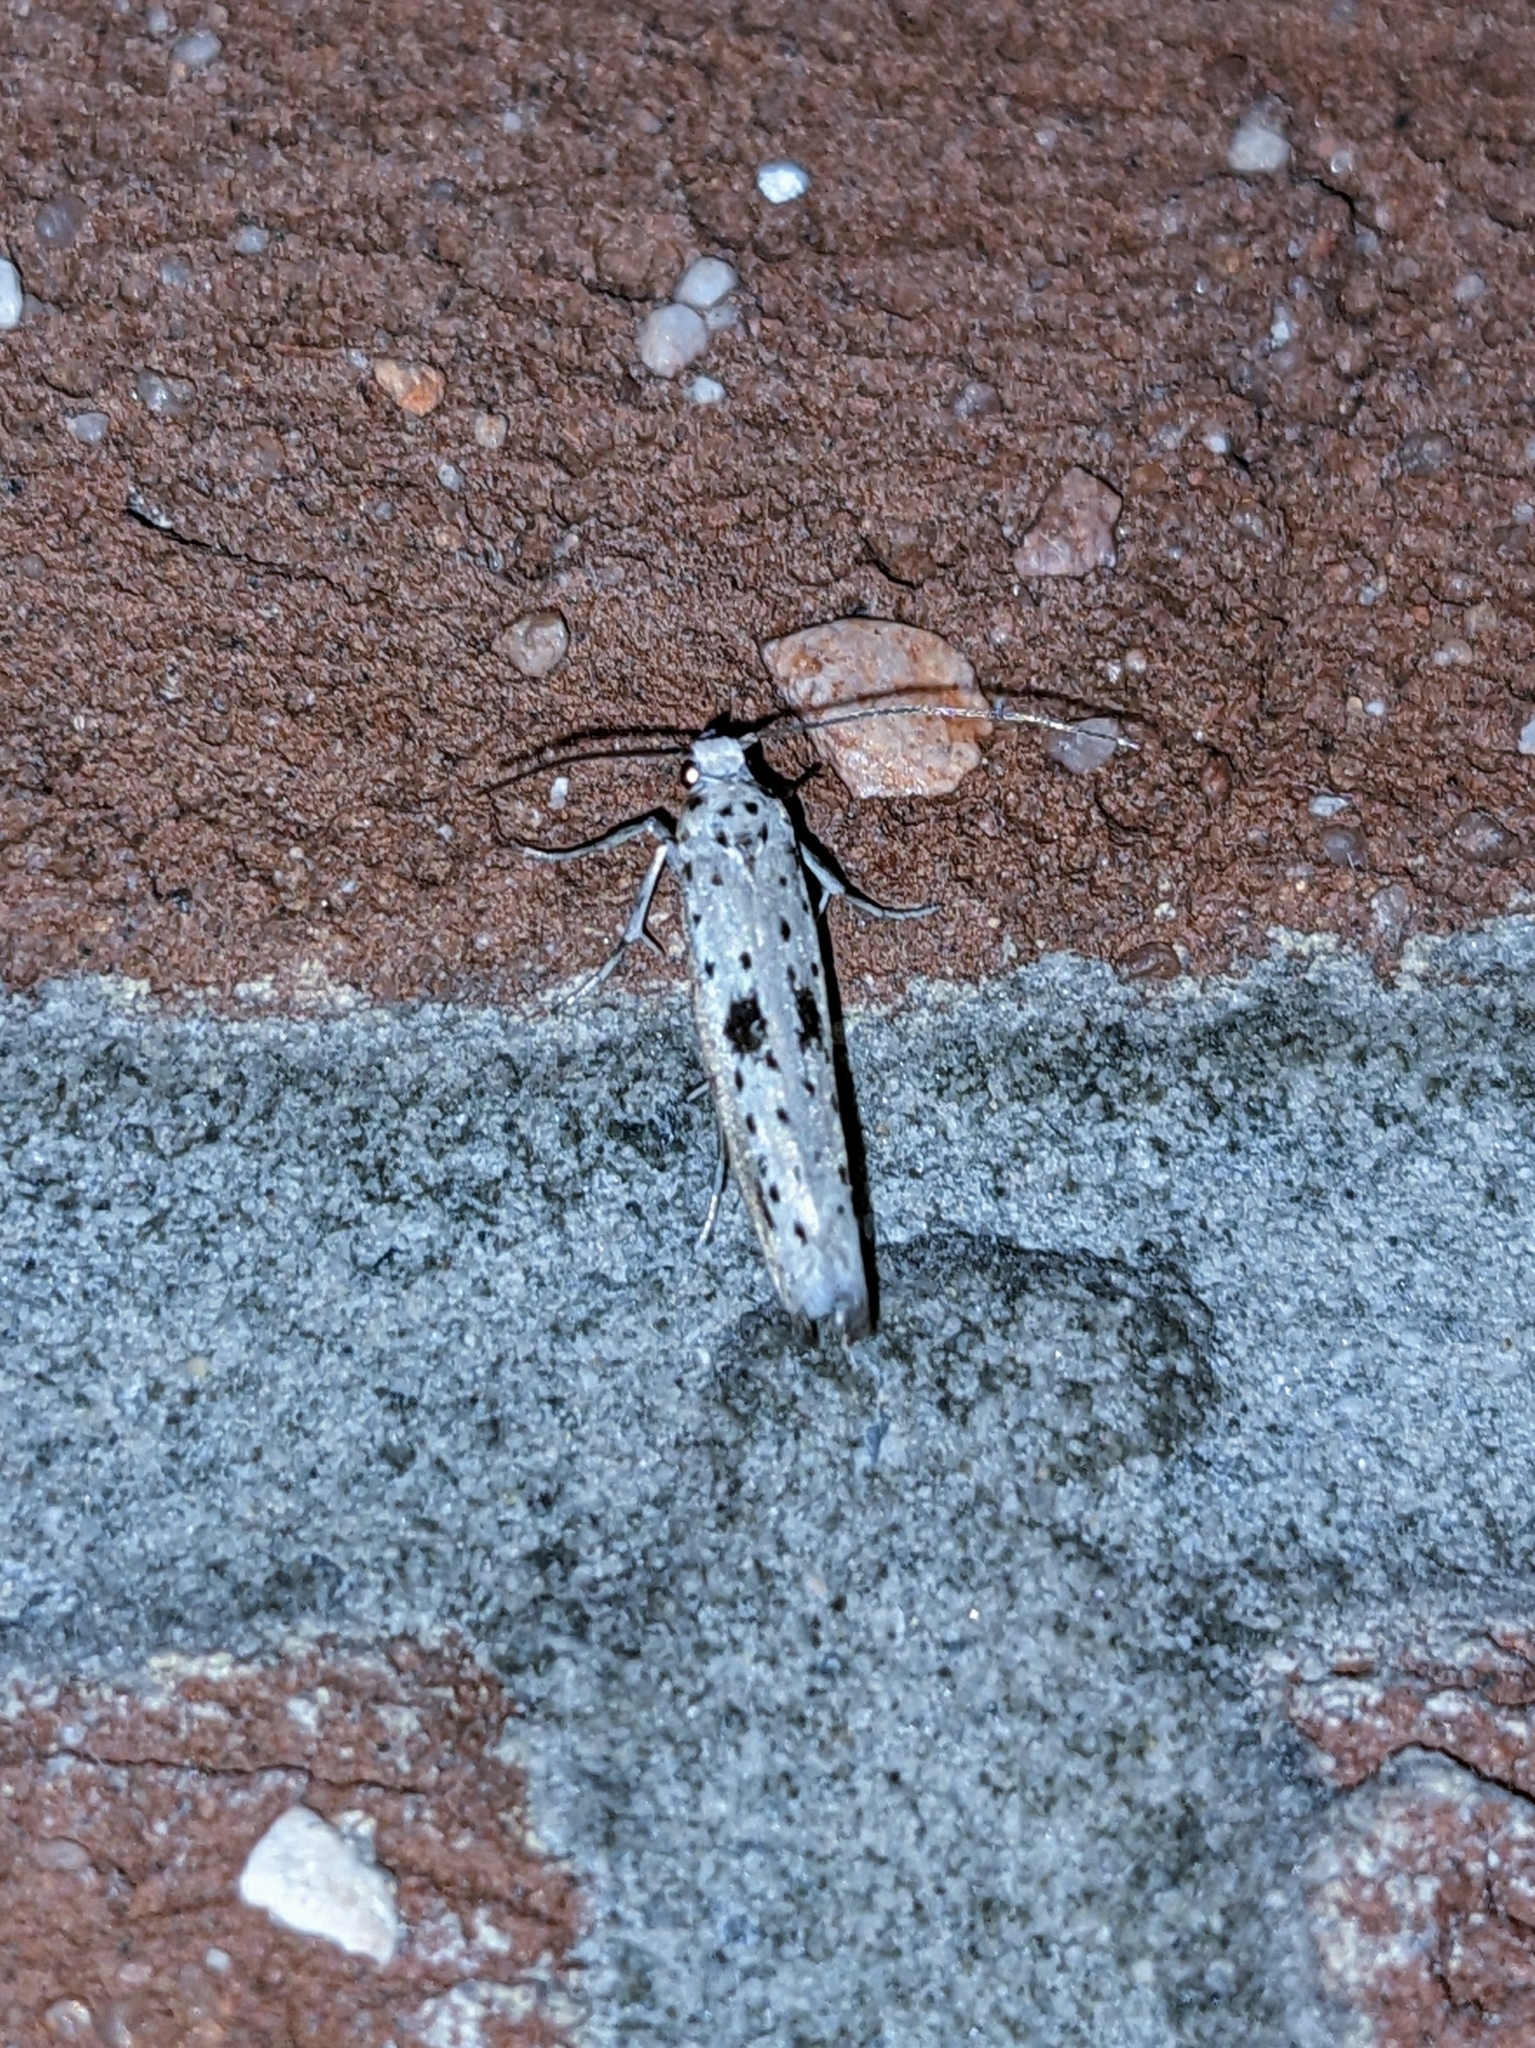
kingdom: Animalia
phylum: Arthropoda
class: Insecta
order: Lepidoptera
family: Yponomeutidae
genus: Yponomeuta
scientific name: Yponomeuta plumbella
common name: Black-tipped ermine
